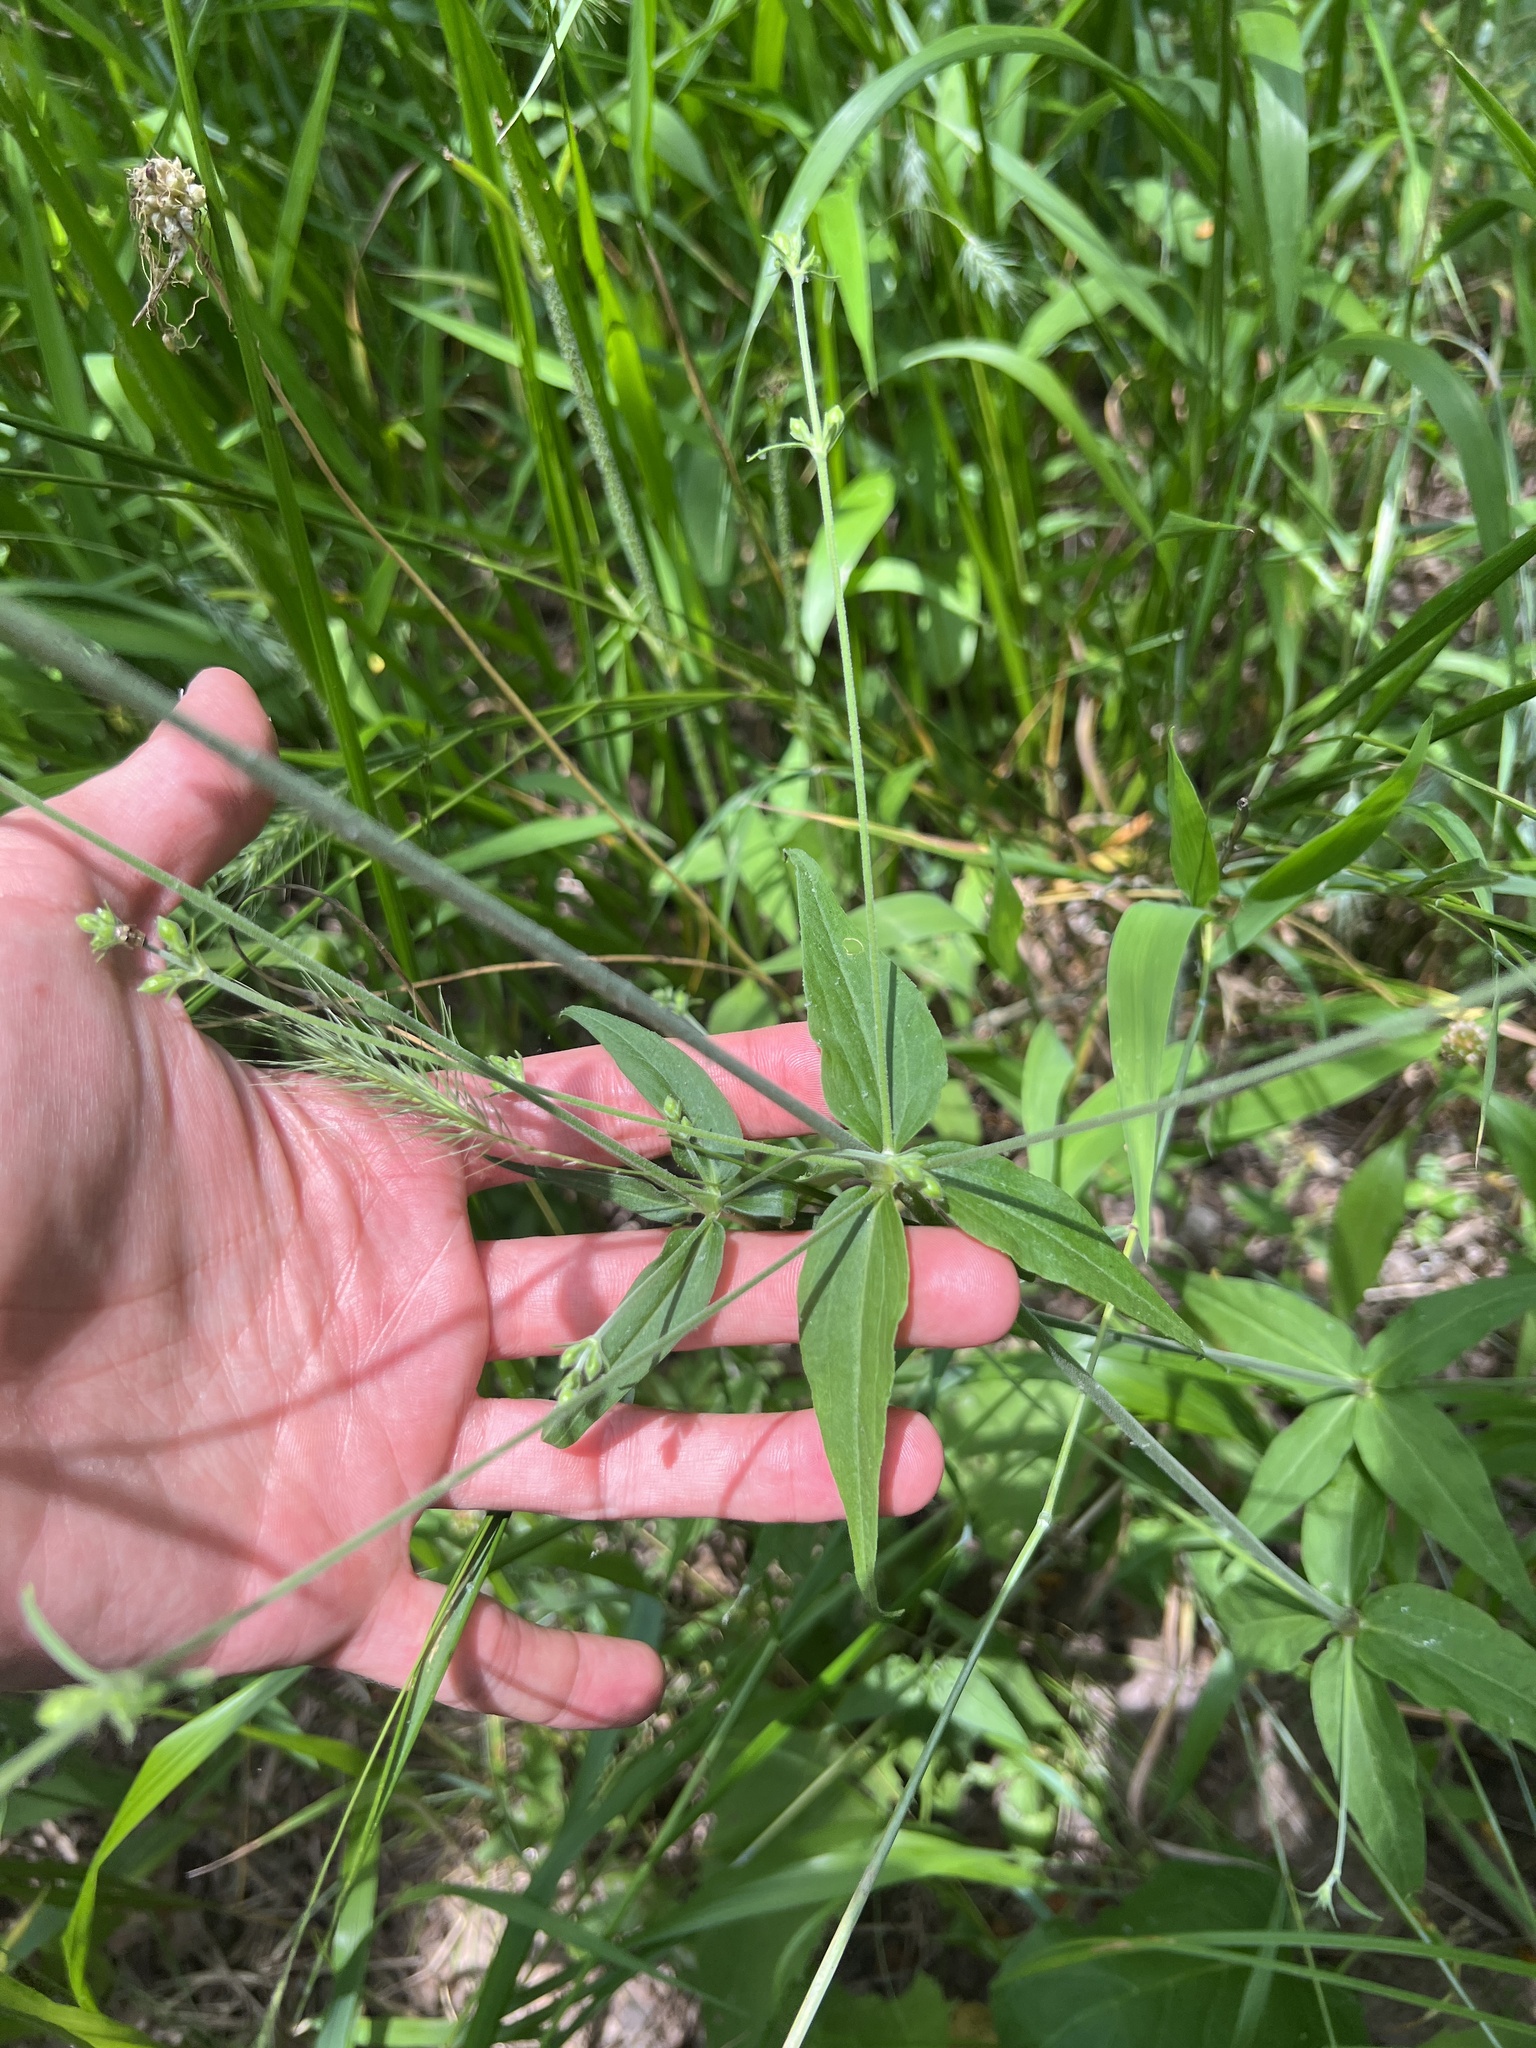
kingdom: Plantae
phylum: Tracheophyta
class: Magnoliopsida
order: Caryophyllales
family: Caryophyllaceae
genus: Silene
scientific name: Silene stellata
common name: Starry campion
